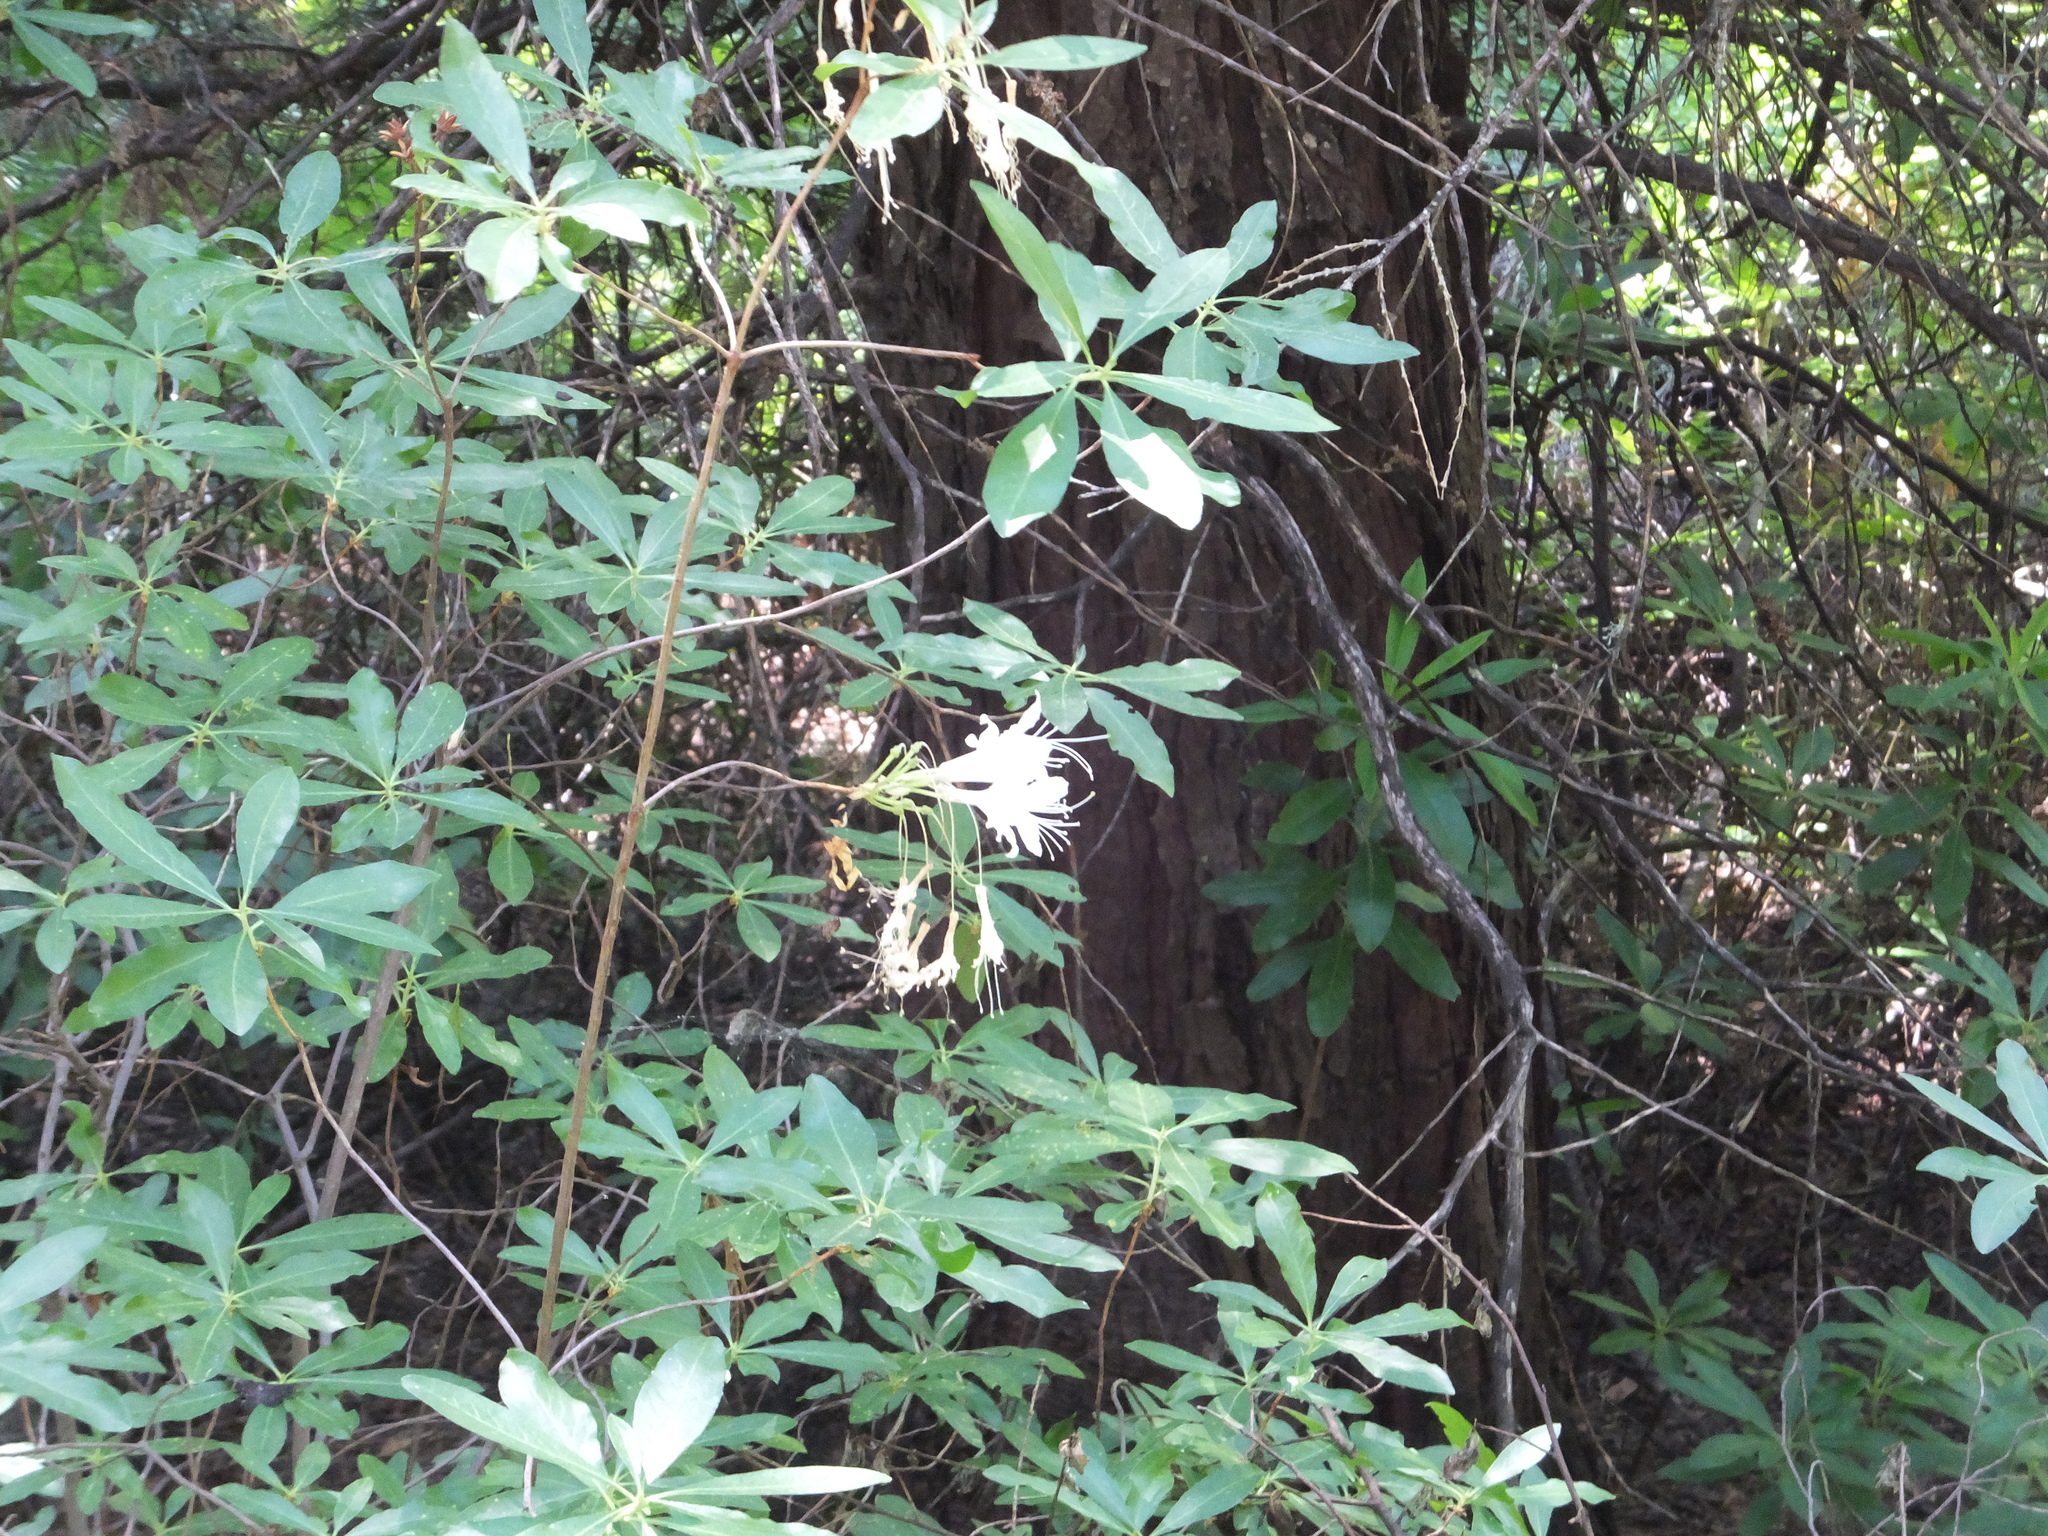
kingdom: Plantae
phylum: Tracheophyta
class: Magnoliopsida
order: Ericales
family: Ericaceae
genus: Rhododendron
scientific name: Rhododendron occidentale
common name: Western azalea
